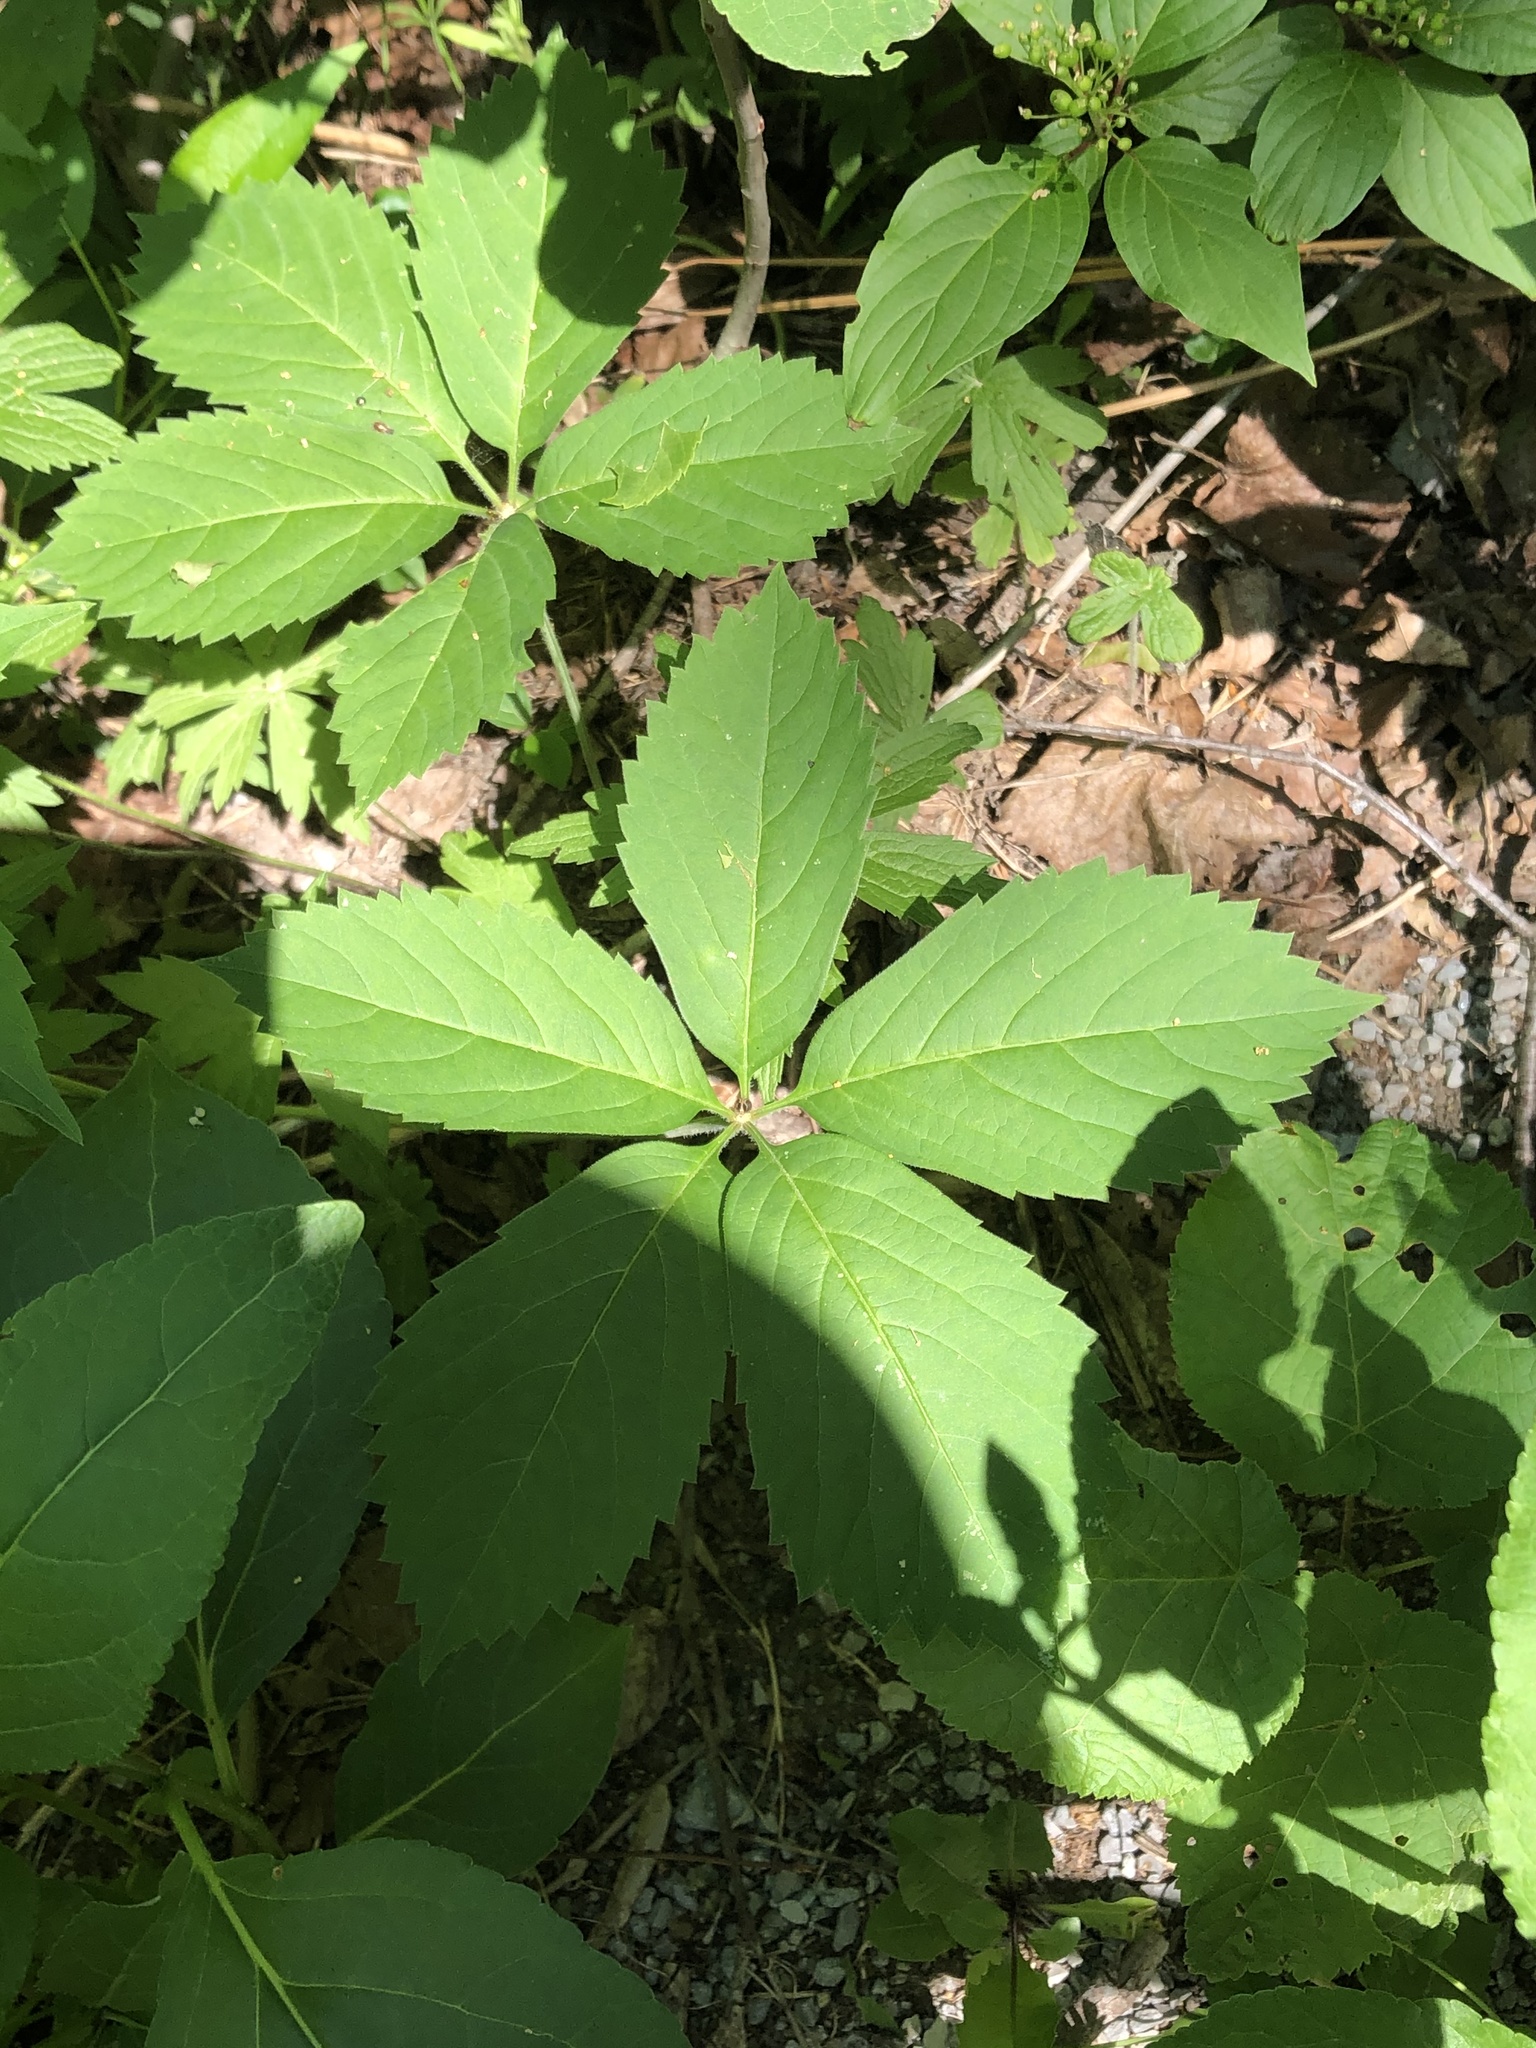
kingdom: Plantae
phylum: Tracheophyta
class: Magnoliopsida
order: Vitales
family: Vitaceae
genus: Parthenocissus
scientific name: Parthenocissus quinquefolia
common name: Virginia-creeper
